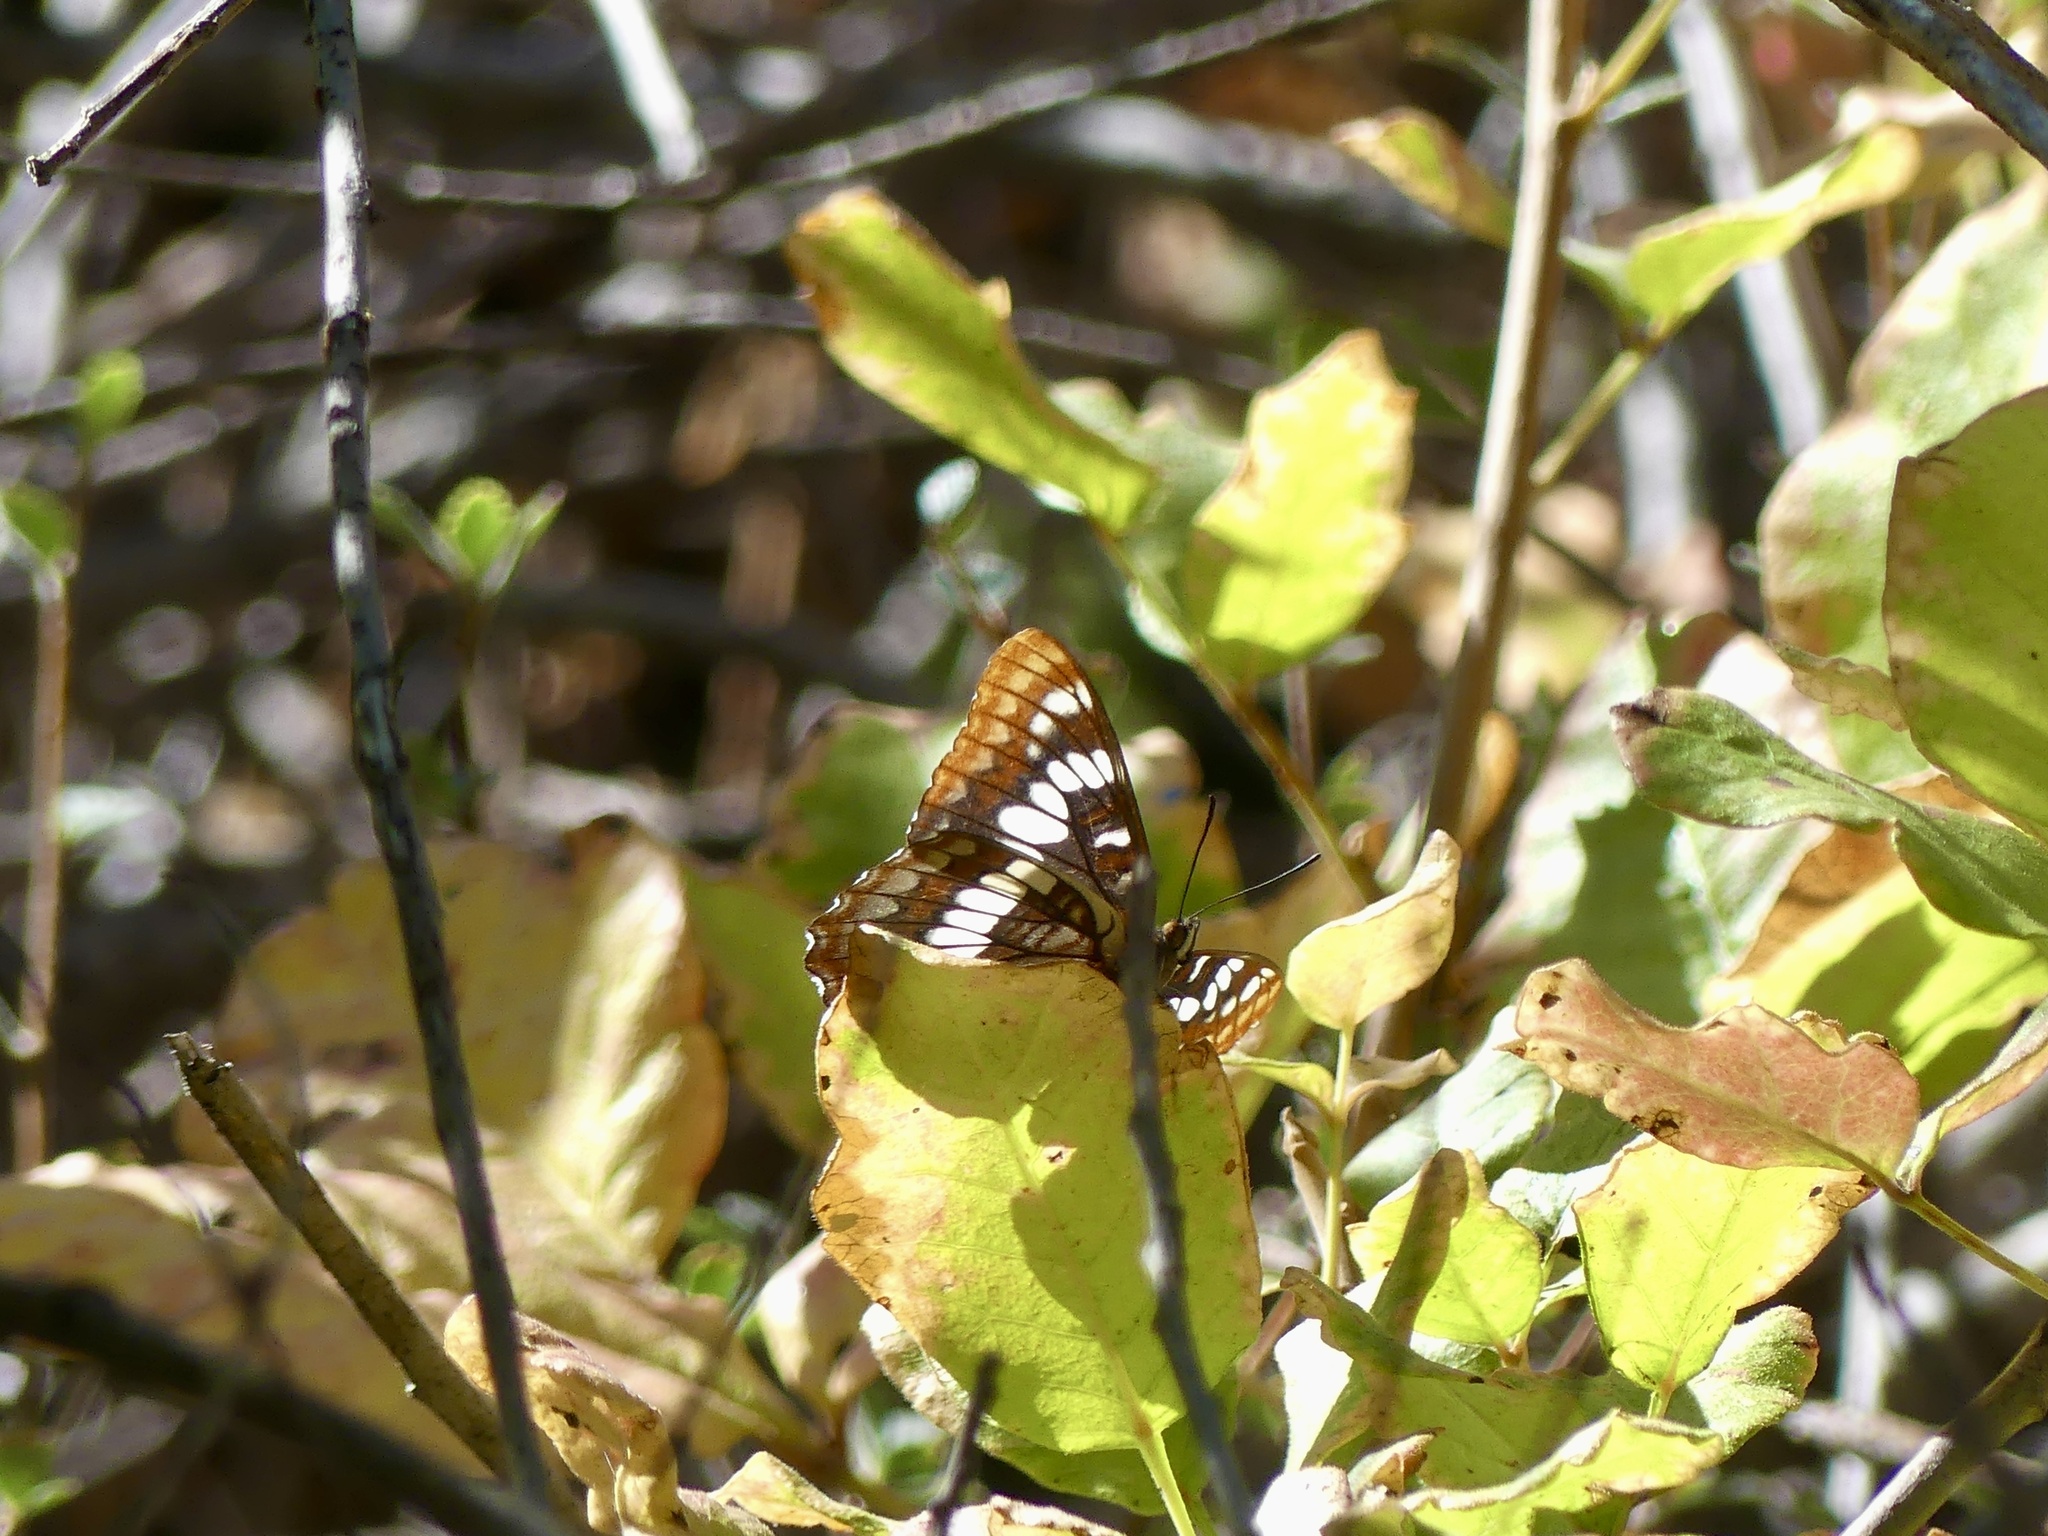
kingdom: Animalia
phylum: Arthropoda
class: Insecta
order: Lepidoptera
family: Nymphalidae
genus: Limenitis
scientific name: Limenitis lorquini
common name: Lorquin's admiral
